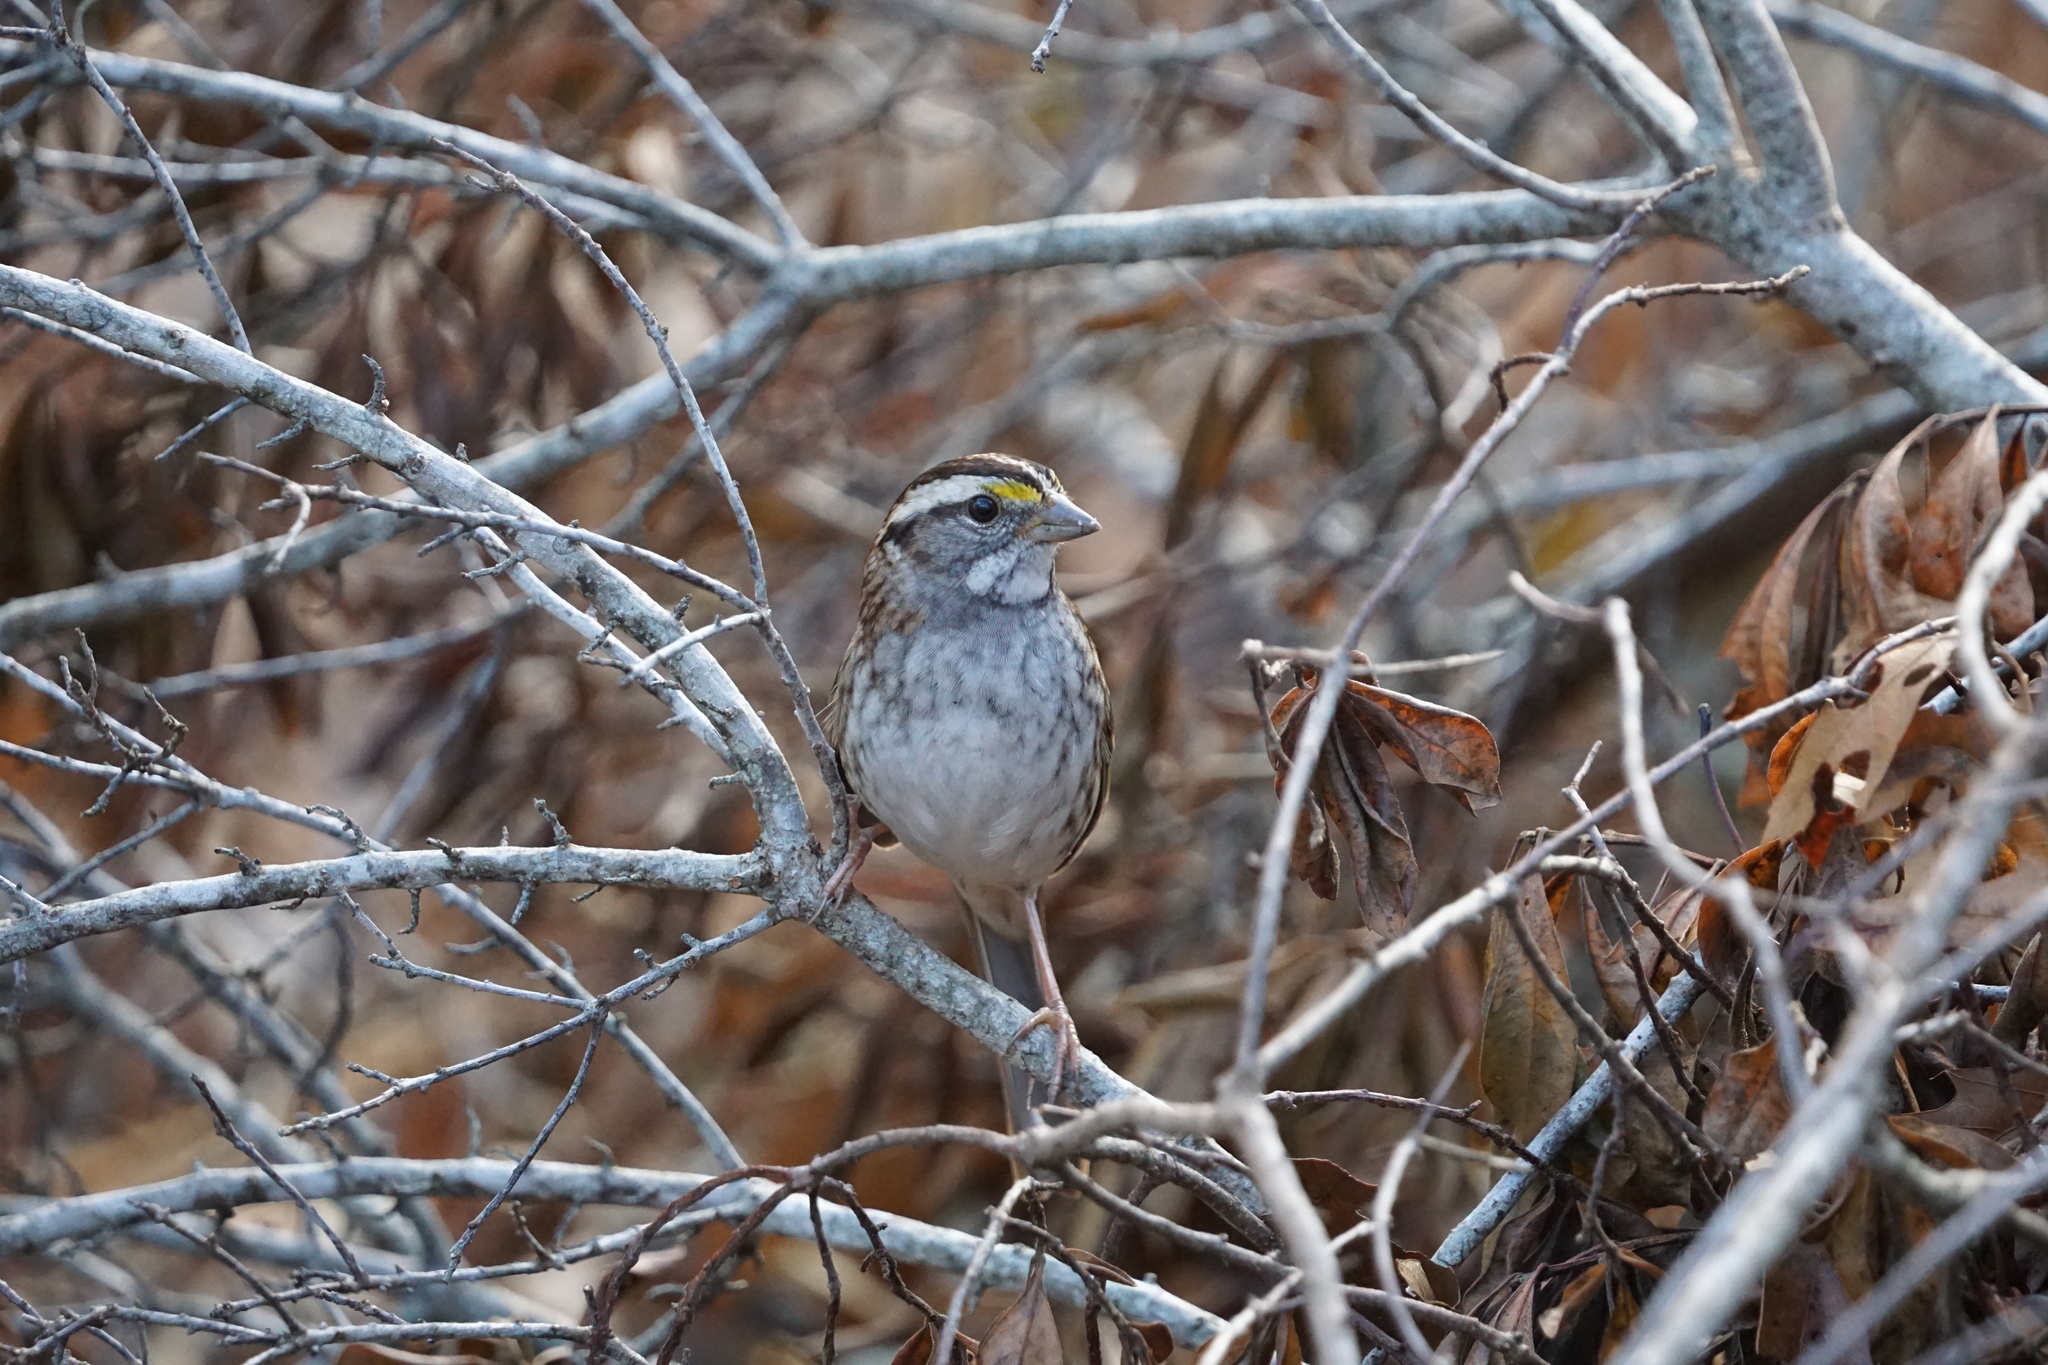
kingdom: Animalia
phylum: Chordata
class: Aves
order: Passeriformes
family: Passerellidae
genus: Zonotrichia
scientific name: Zonotrichia albicollis
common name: White-throated sparrow
